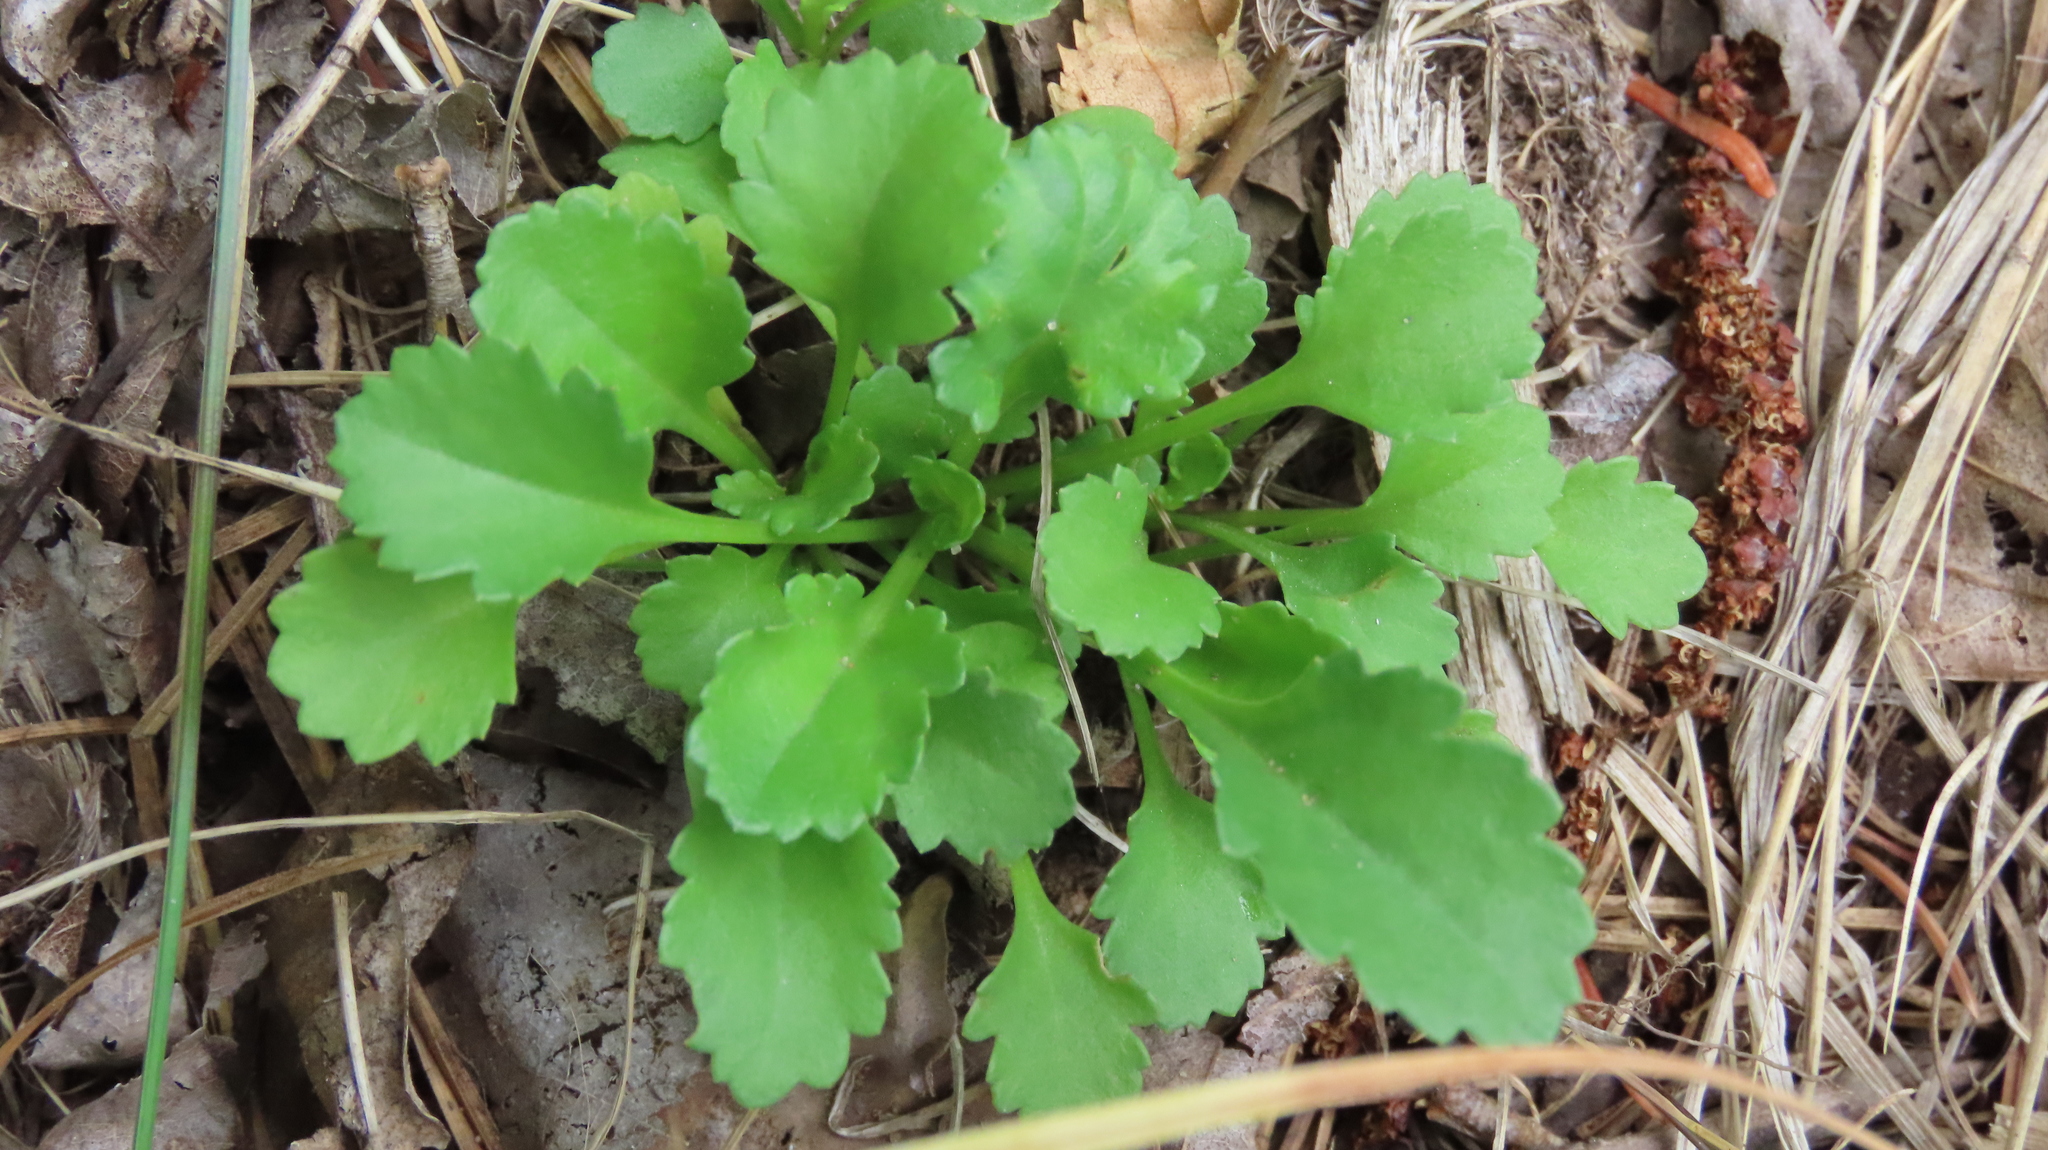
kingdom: Plantae
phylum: Tracheophyta
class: Magnoliopsida
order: Asterales
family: Asteraceae
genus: Leucanthemum
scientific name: Leucanthemum vulgare
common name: Oxeye daisy
